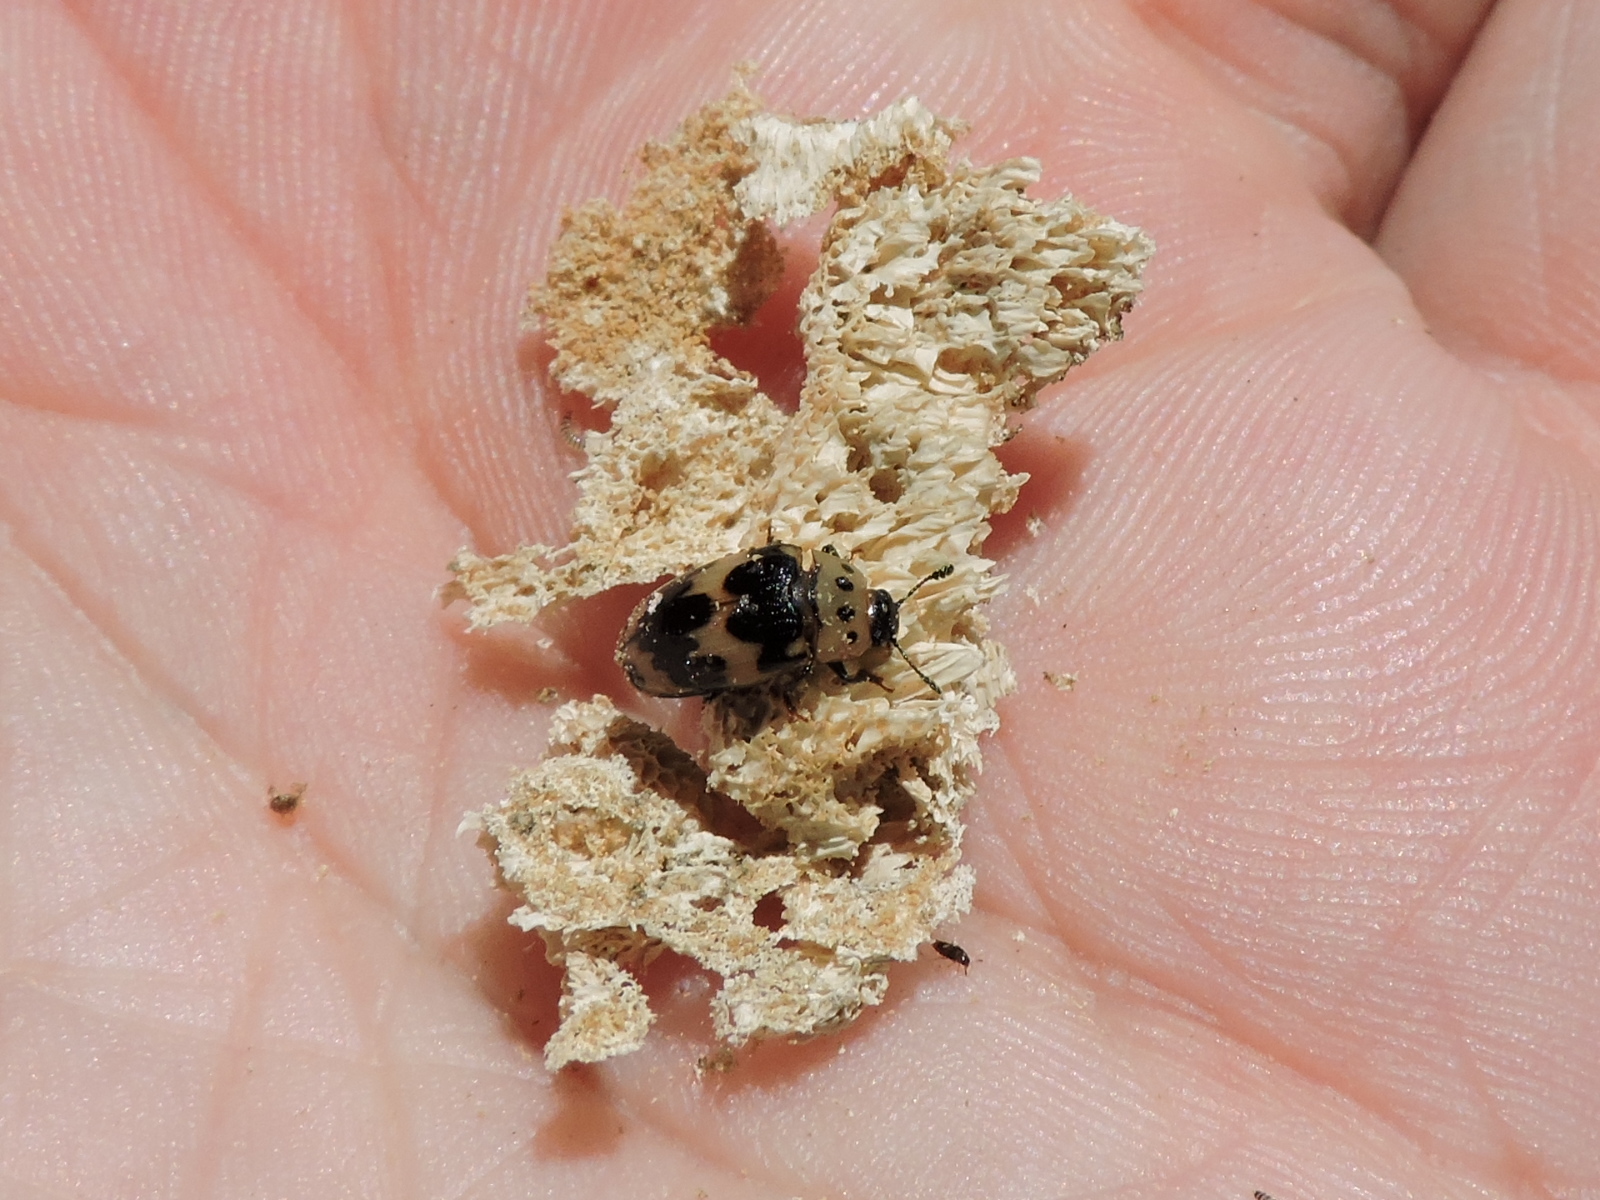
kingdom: Animalia
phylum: Arthropoda
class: Insecta
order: Coleoptera
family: Erotylidae
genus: Ischyrus
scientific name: Ischyrus quadripunctatus
